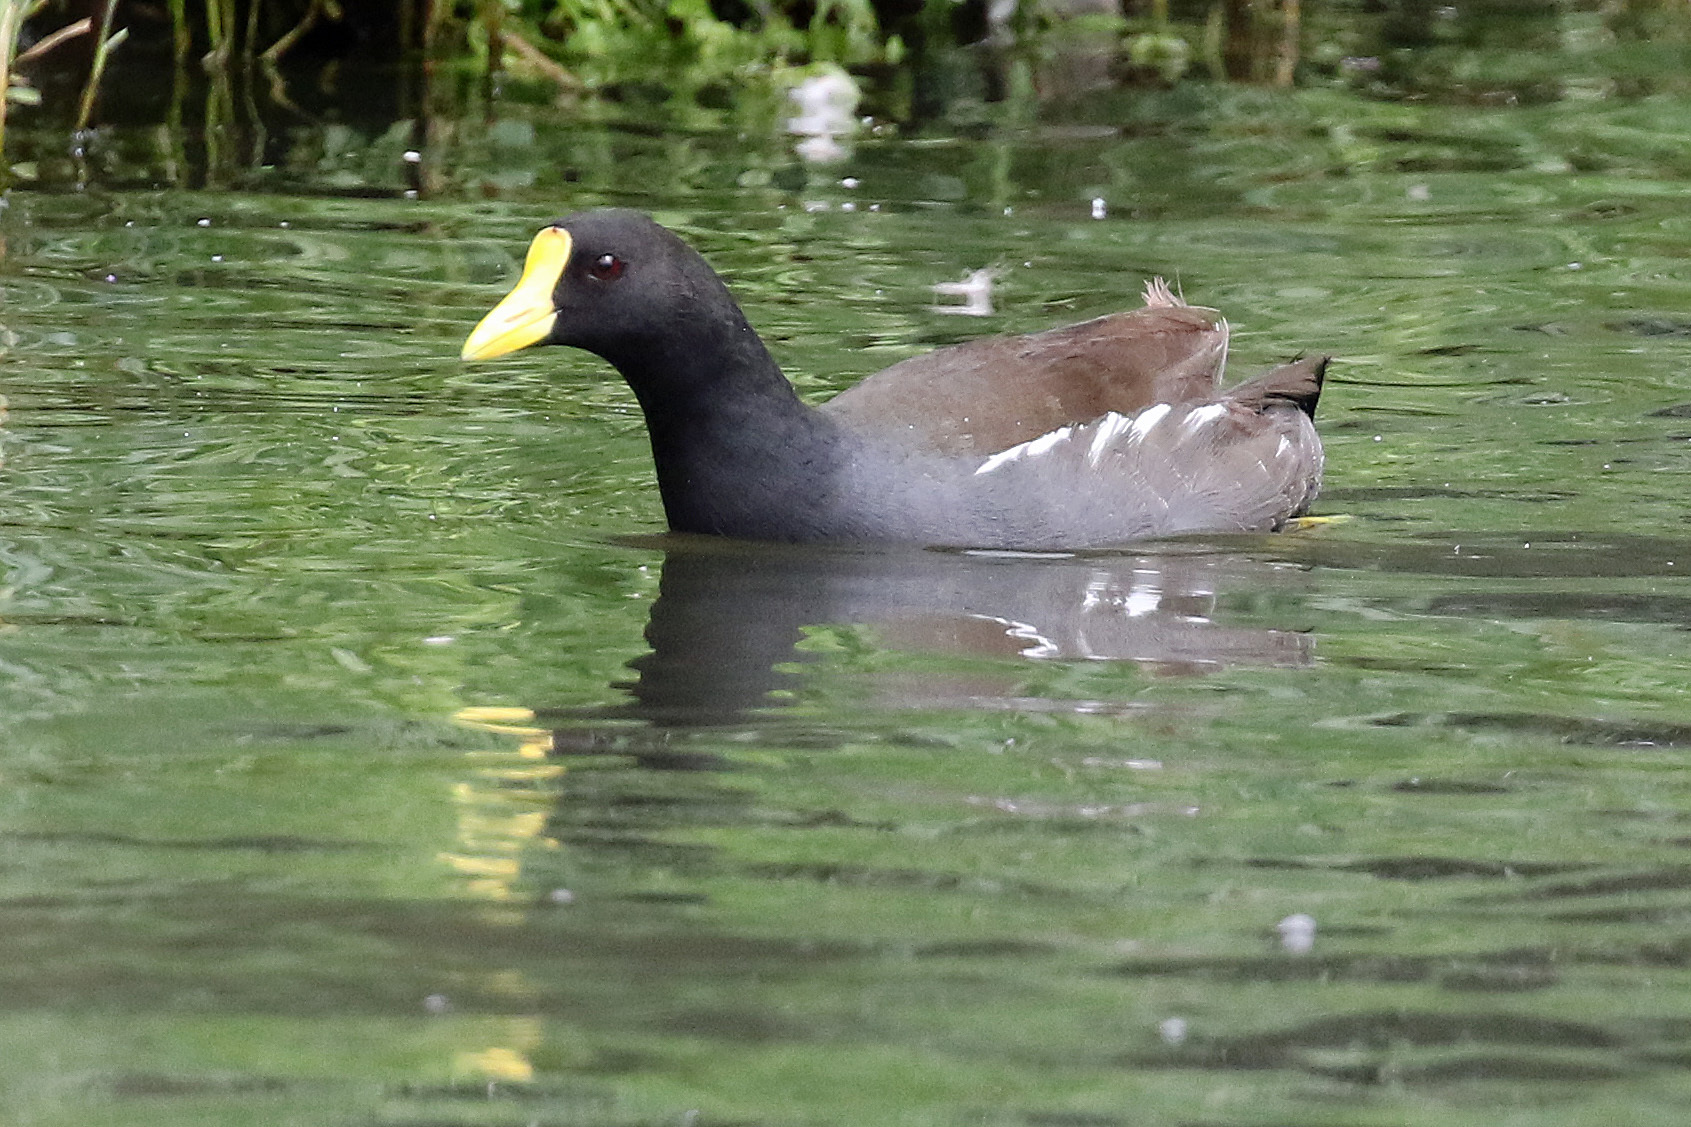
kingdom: Animalia
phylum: Chordata
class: Aves
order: Gruiformes
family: Rallidae
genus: Gallinula
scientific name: Gallinula chloropus
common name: Common moorhen
